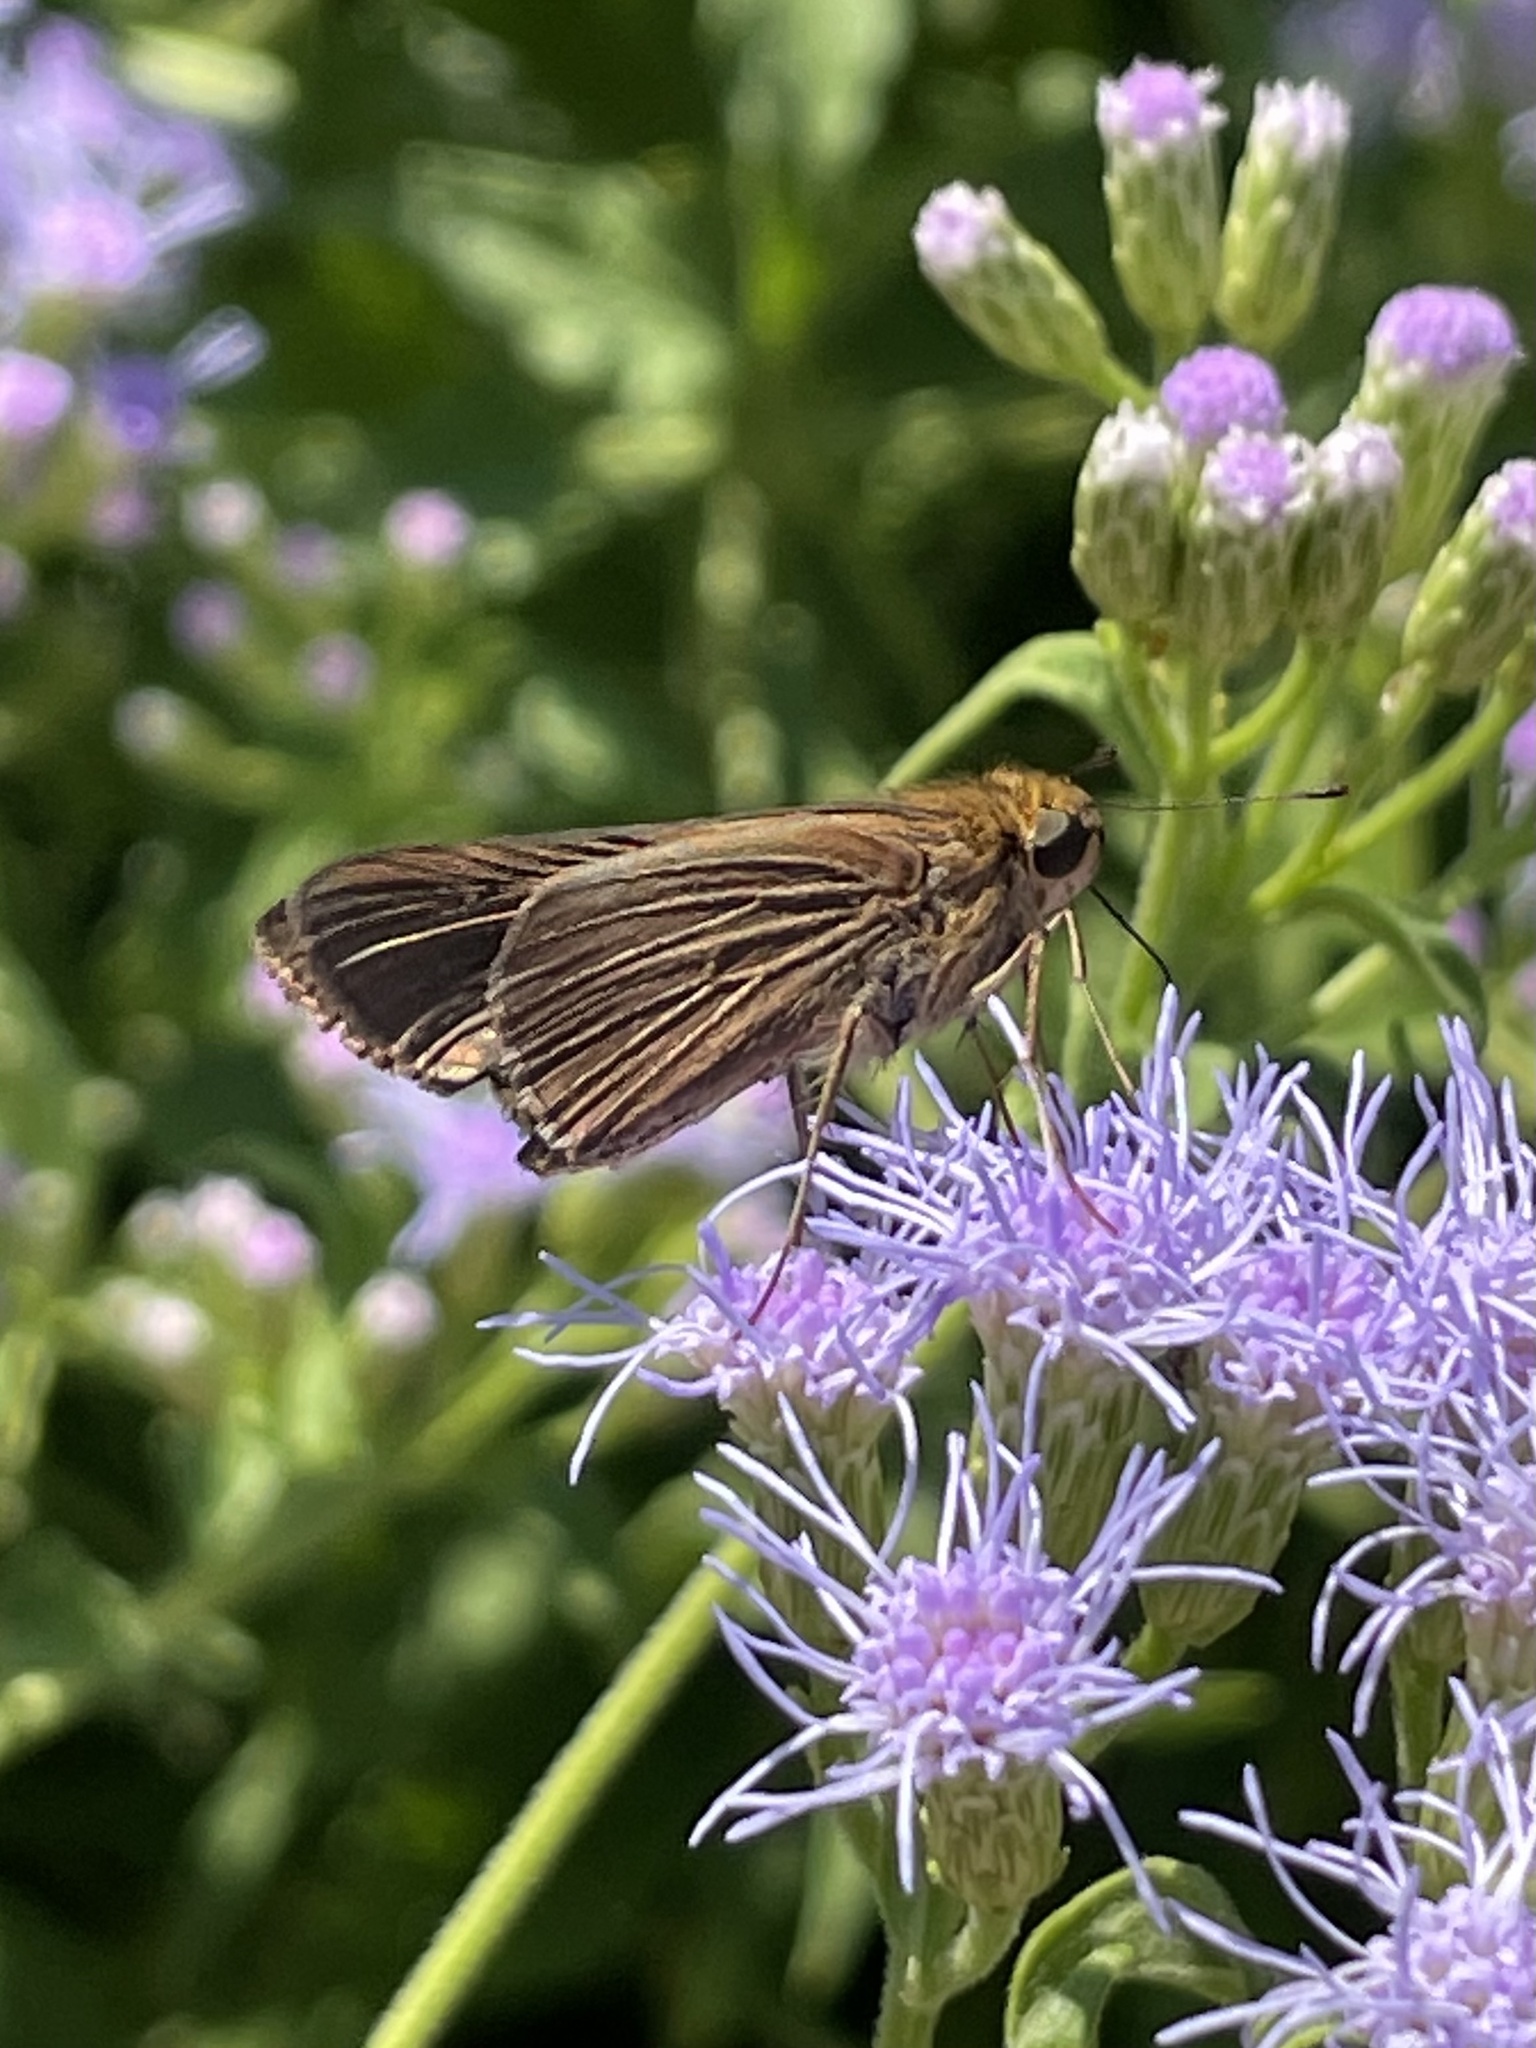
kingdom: Animalia
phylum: Arthropoda
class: Insecta
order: Lepidoptera
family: Hesperiidae
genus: Panoquina
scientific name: Panoquina ocola
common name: Ocola skipper
